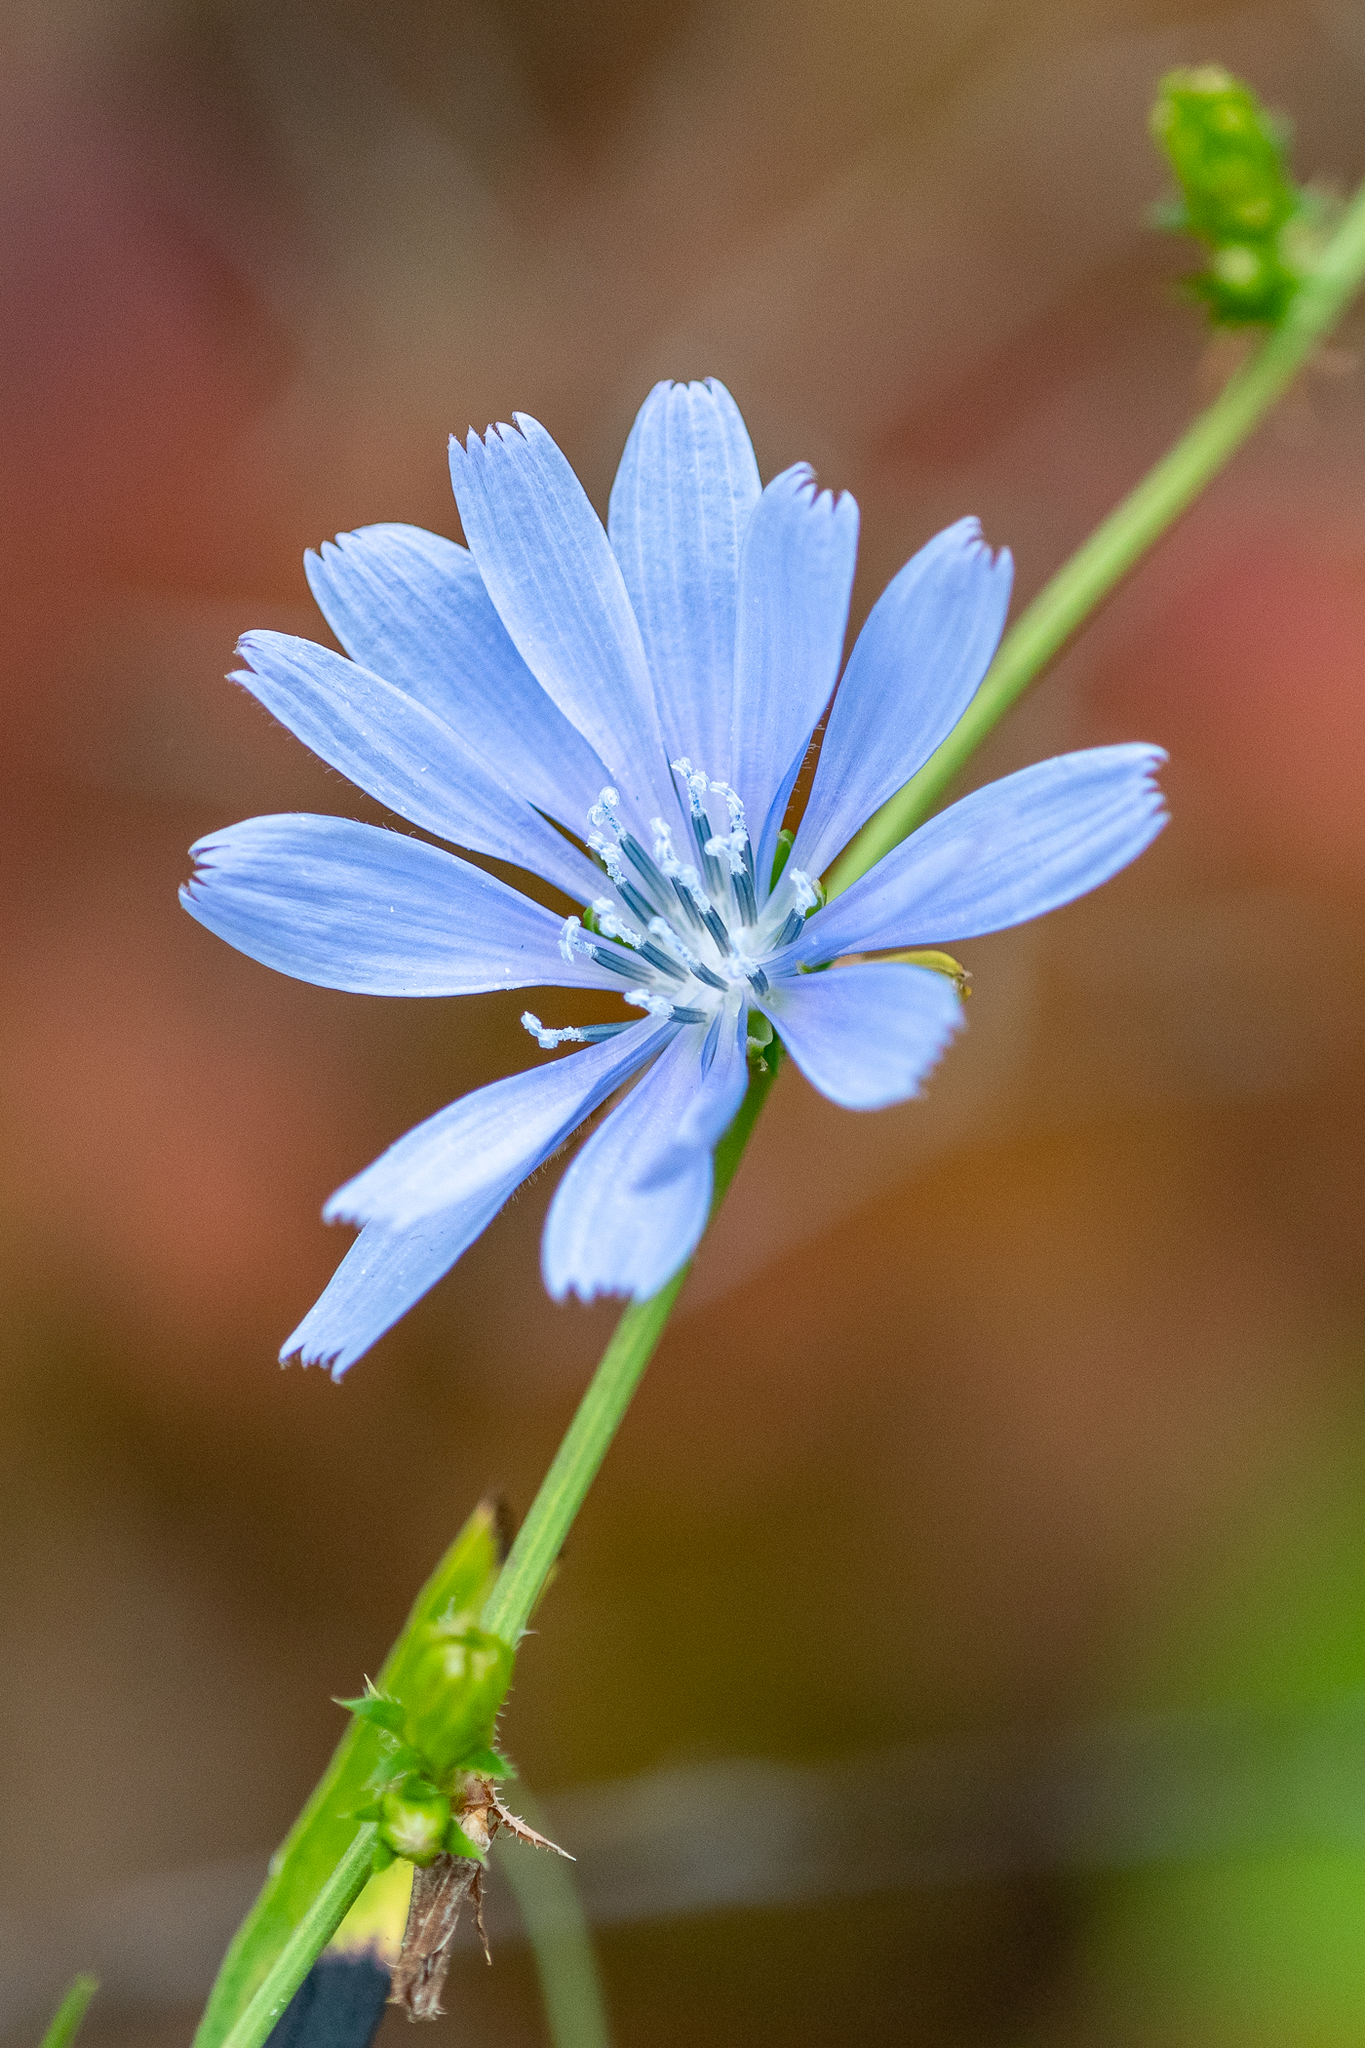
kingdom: Plantae
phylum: Tracheophyta
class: Magnoliopsida
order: Asterales
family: Asteraceae
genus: Cichorium
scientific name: Cichorium intybus
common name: Chicory
